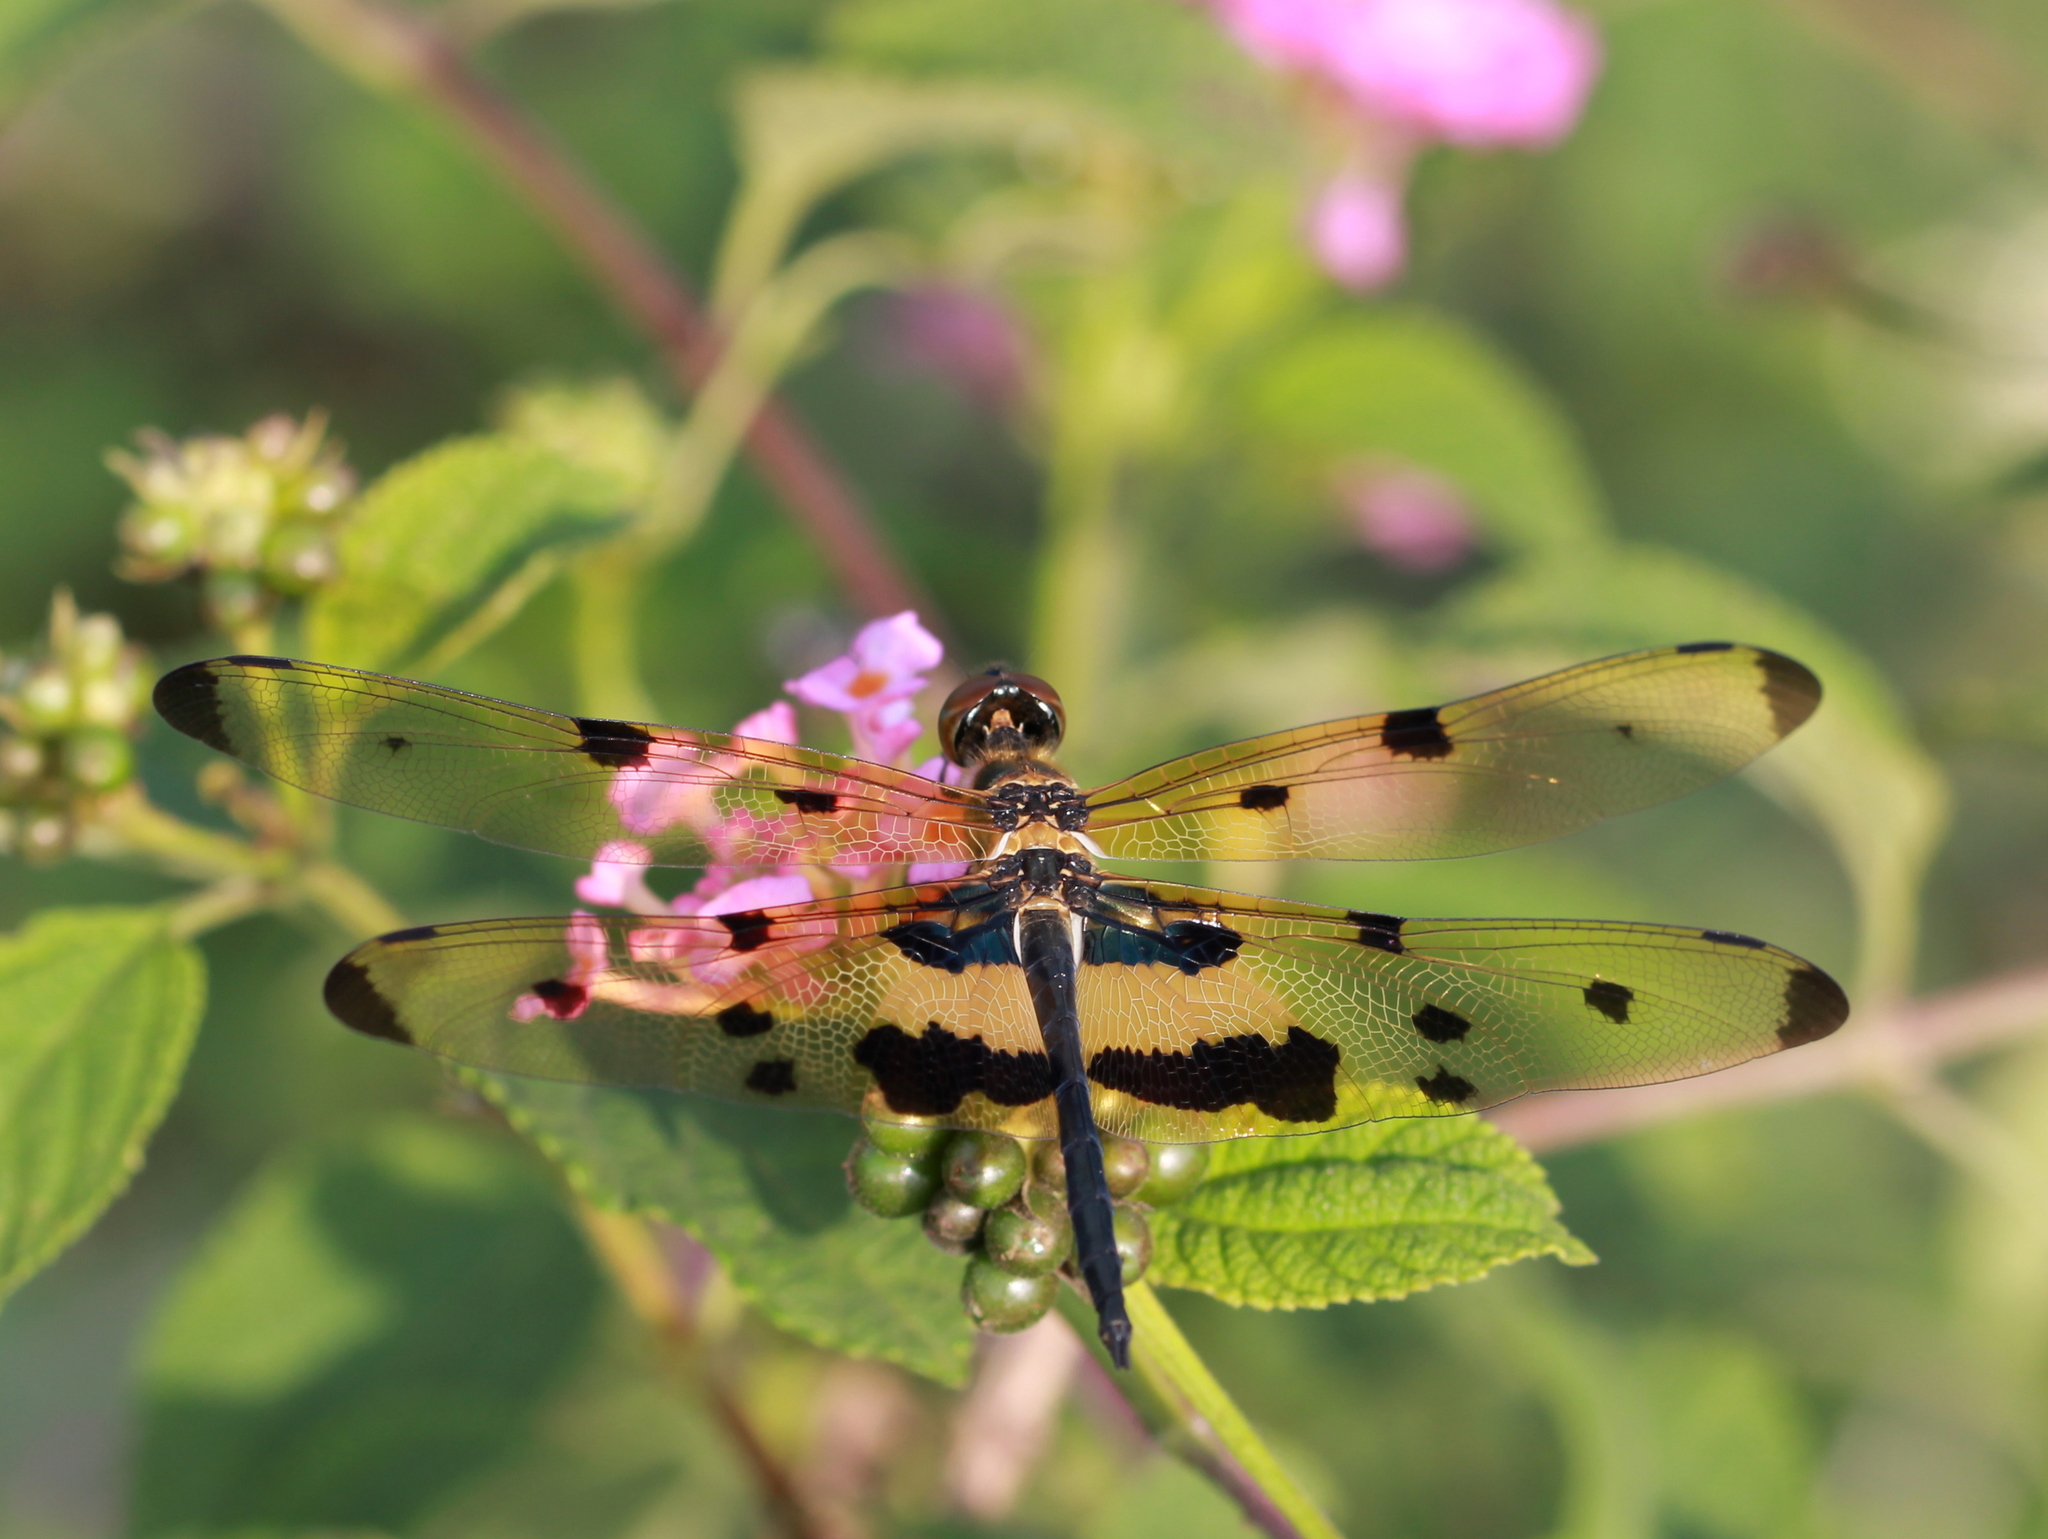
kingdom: Animalia
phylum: Arthropoda
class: Insecta
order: Odonata
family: Libellulidae
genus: Rhyothemis
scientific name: Rhyothemis variegata
